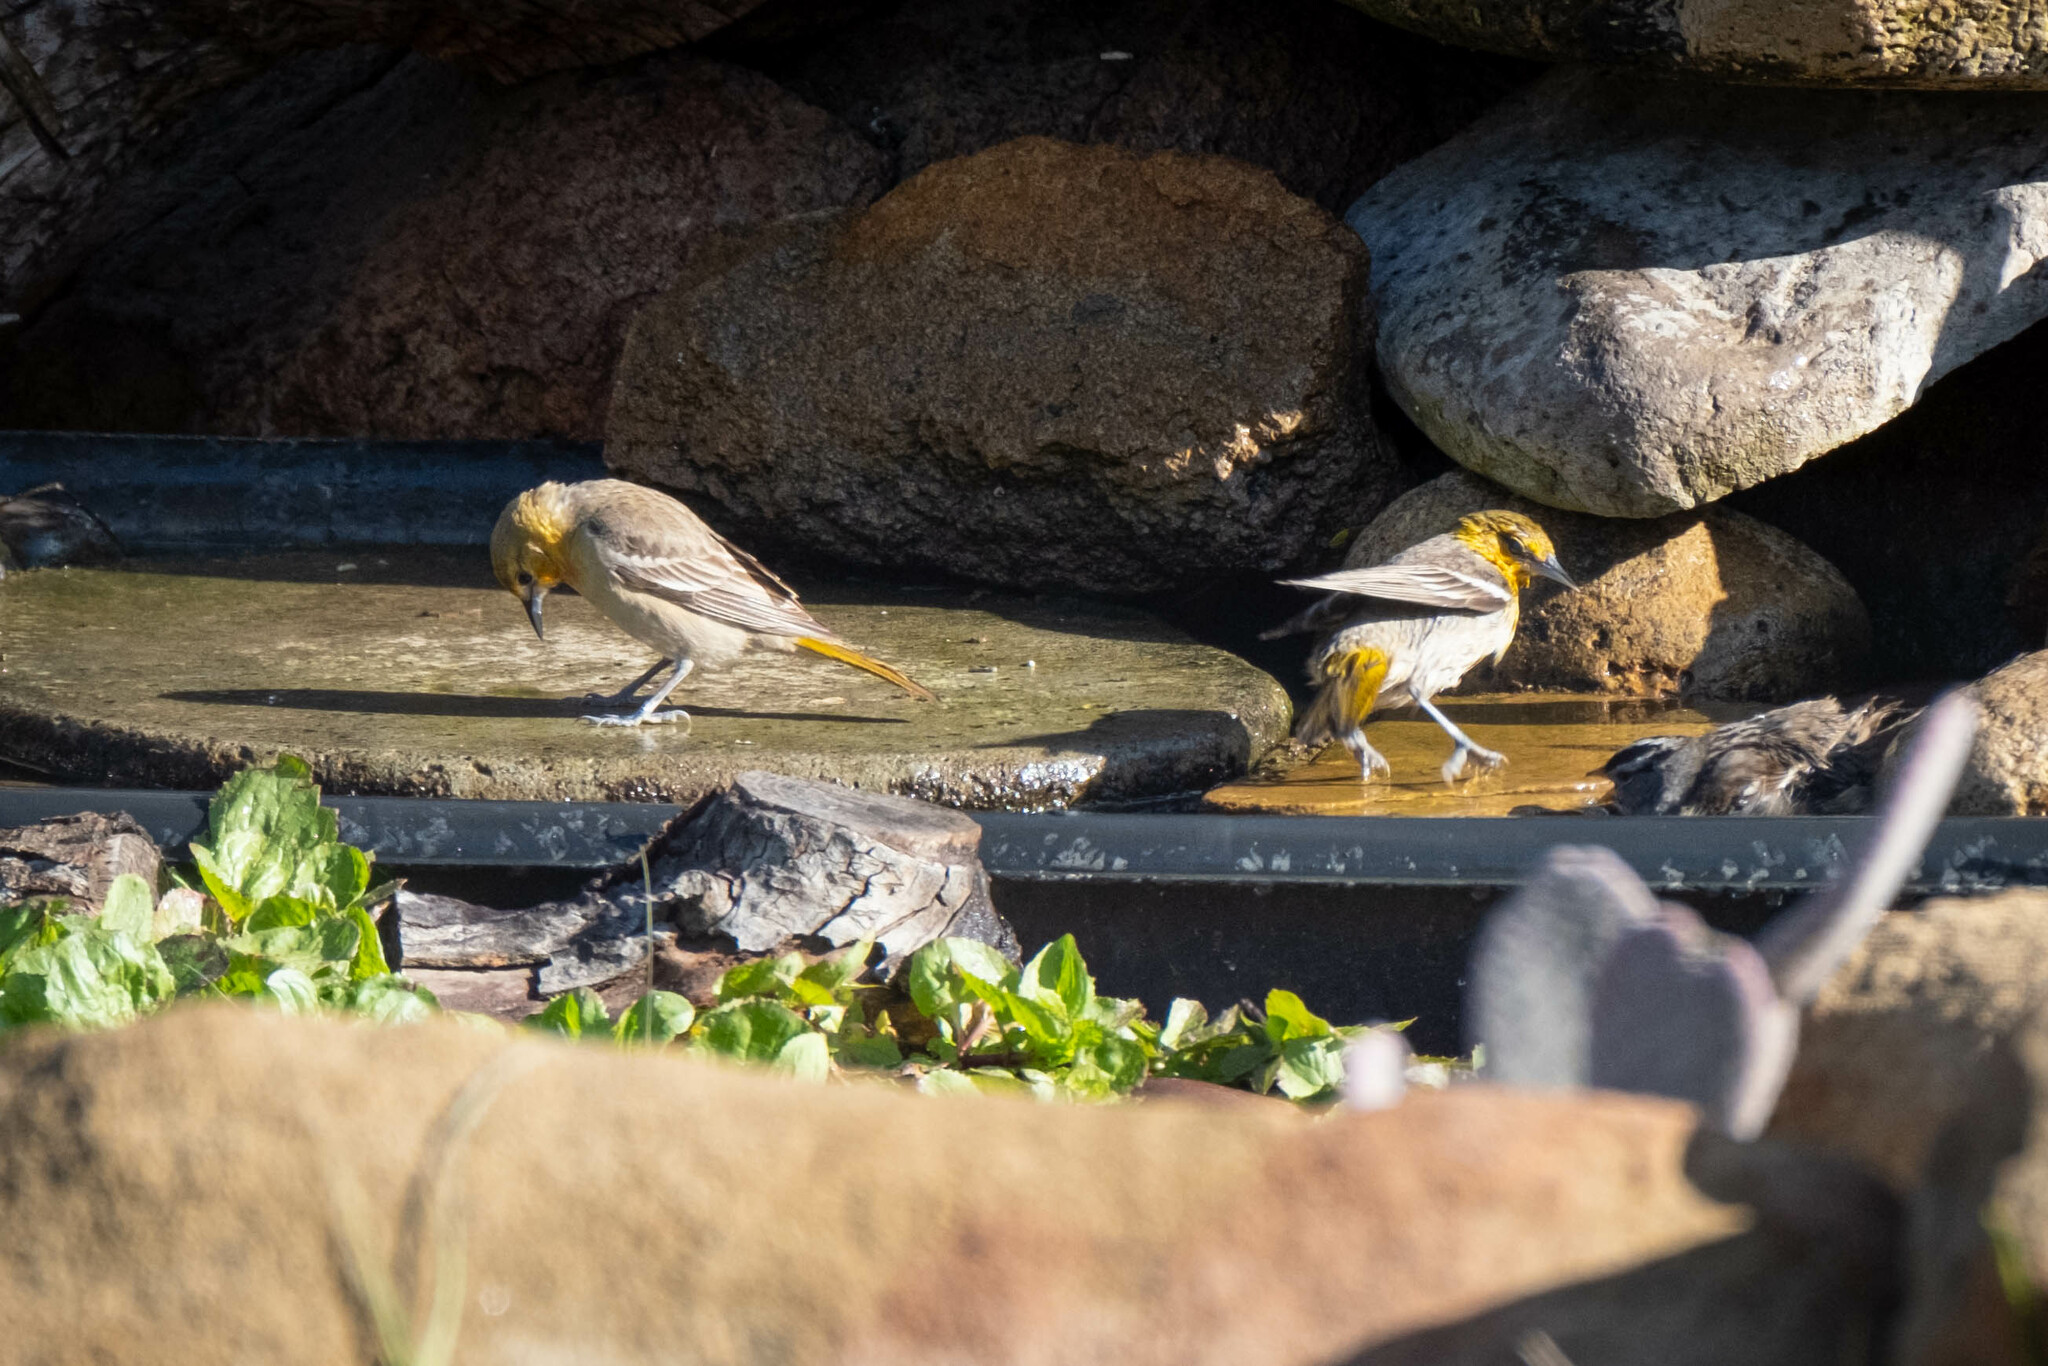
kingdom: Animalia
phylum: Chordata
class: Aves
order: Passeriformes
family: Icteridae
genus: Icterus
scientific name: Icterus bullockii
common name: Bullock's oriole
